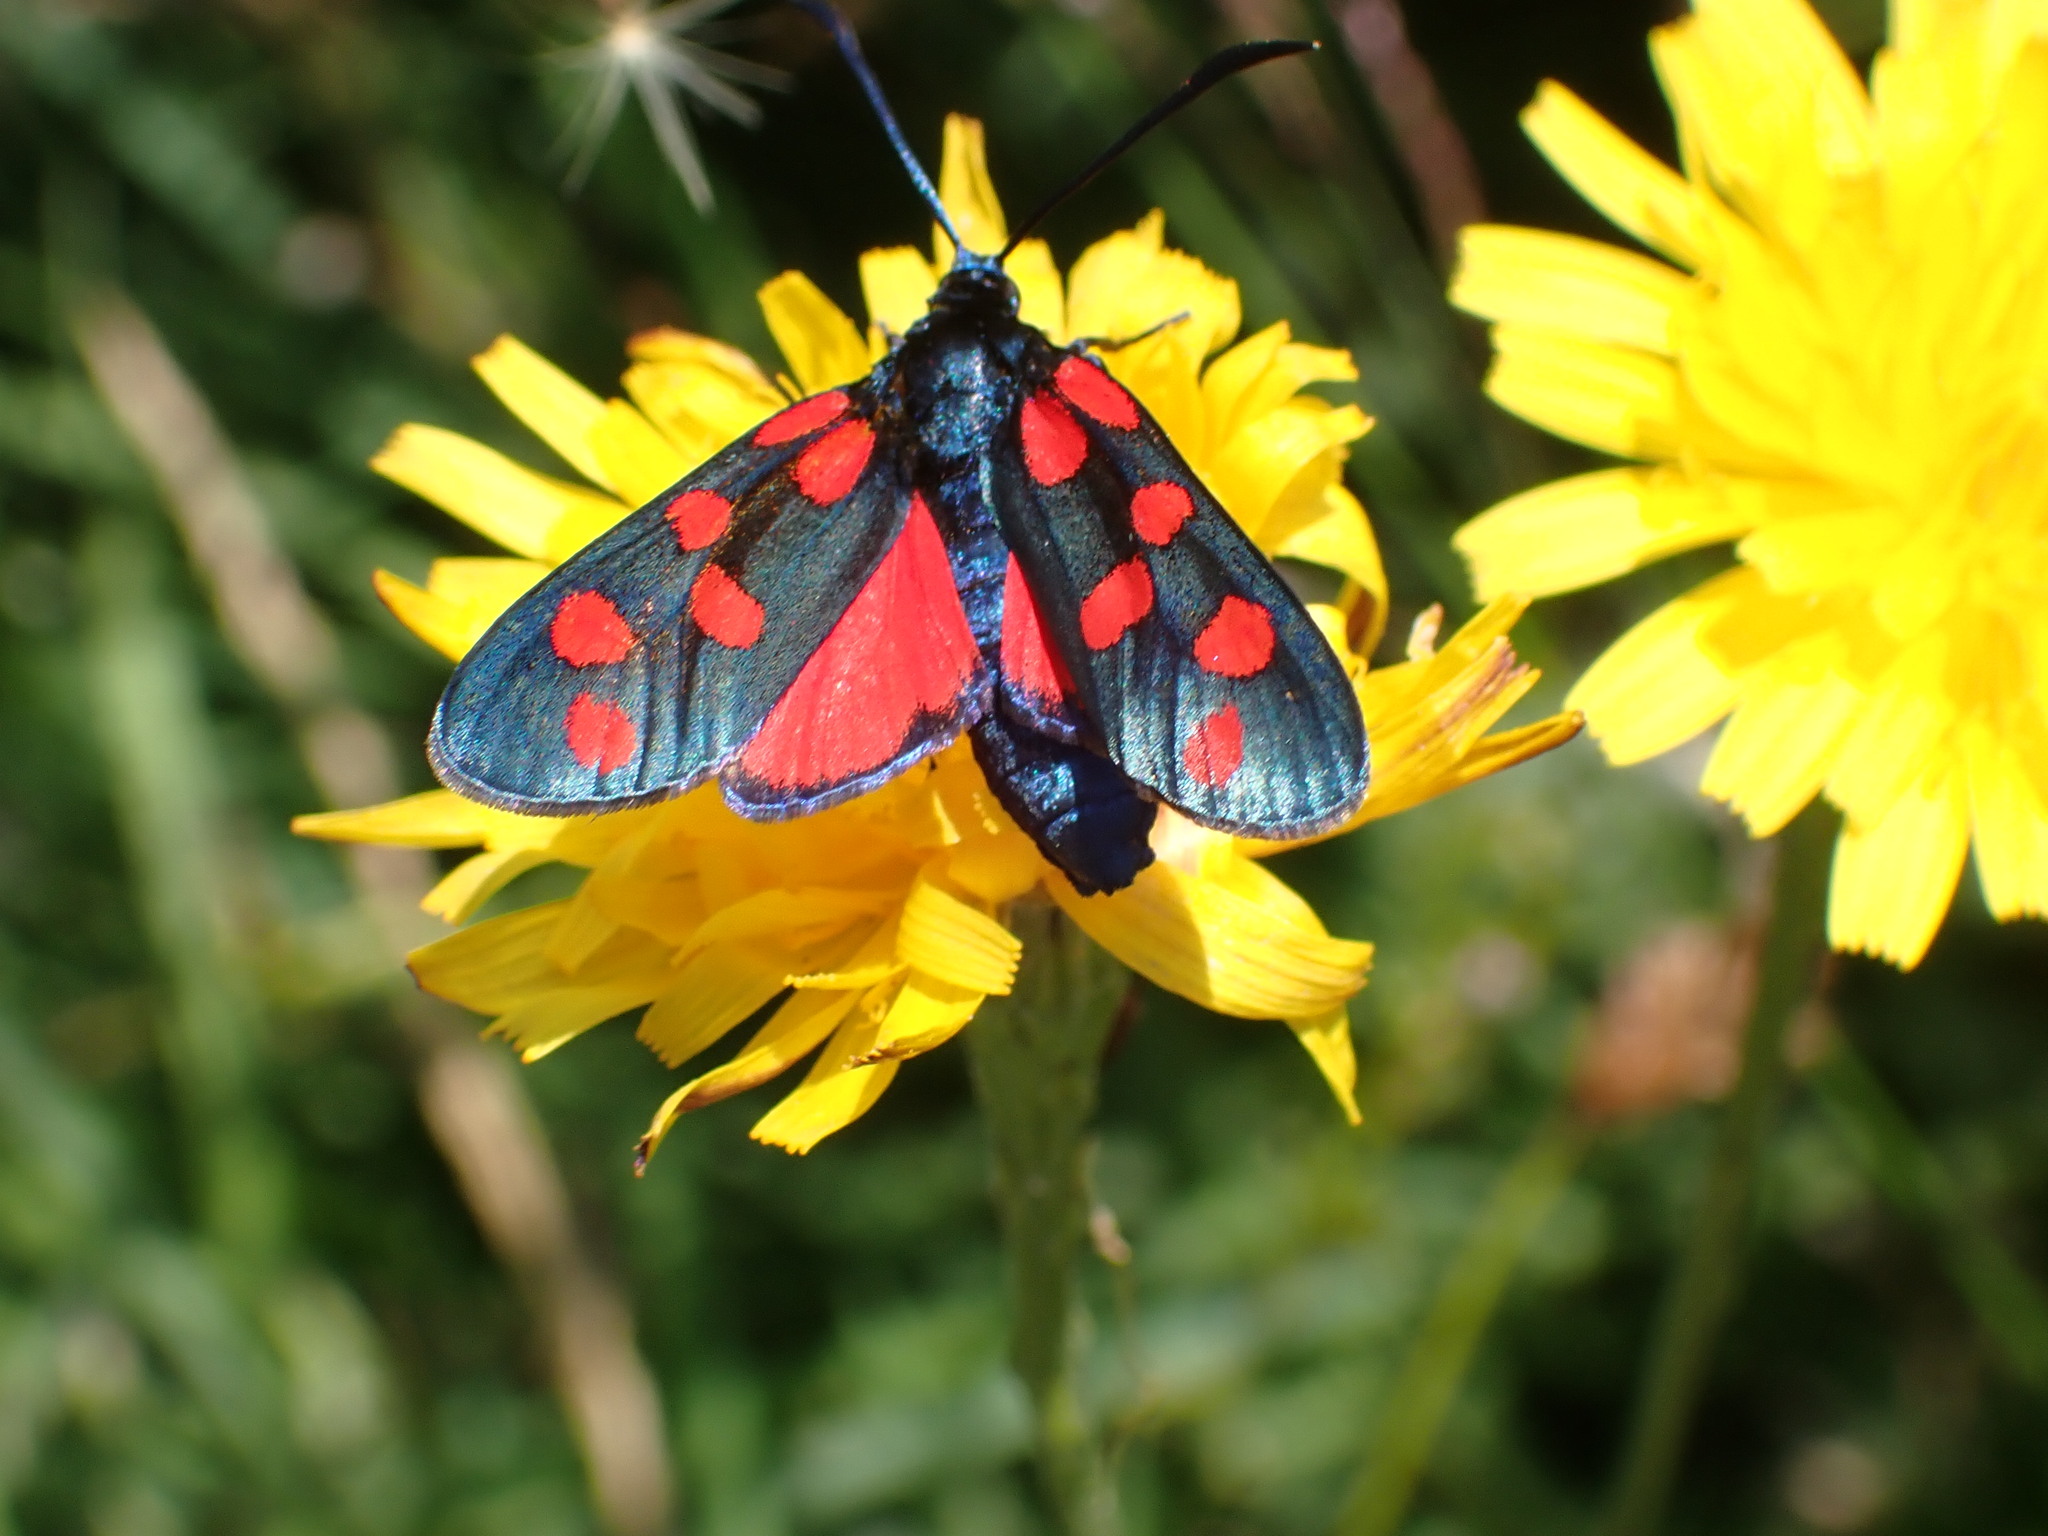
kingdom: Animalia
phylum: Arthropoda
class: Insecta
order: Lepidoptera
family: Zygaenidae
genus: Zygaena
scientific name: Zygaena transalpina
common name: Southern six spot burnet
